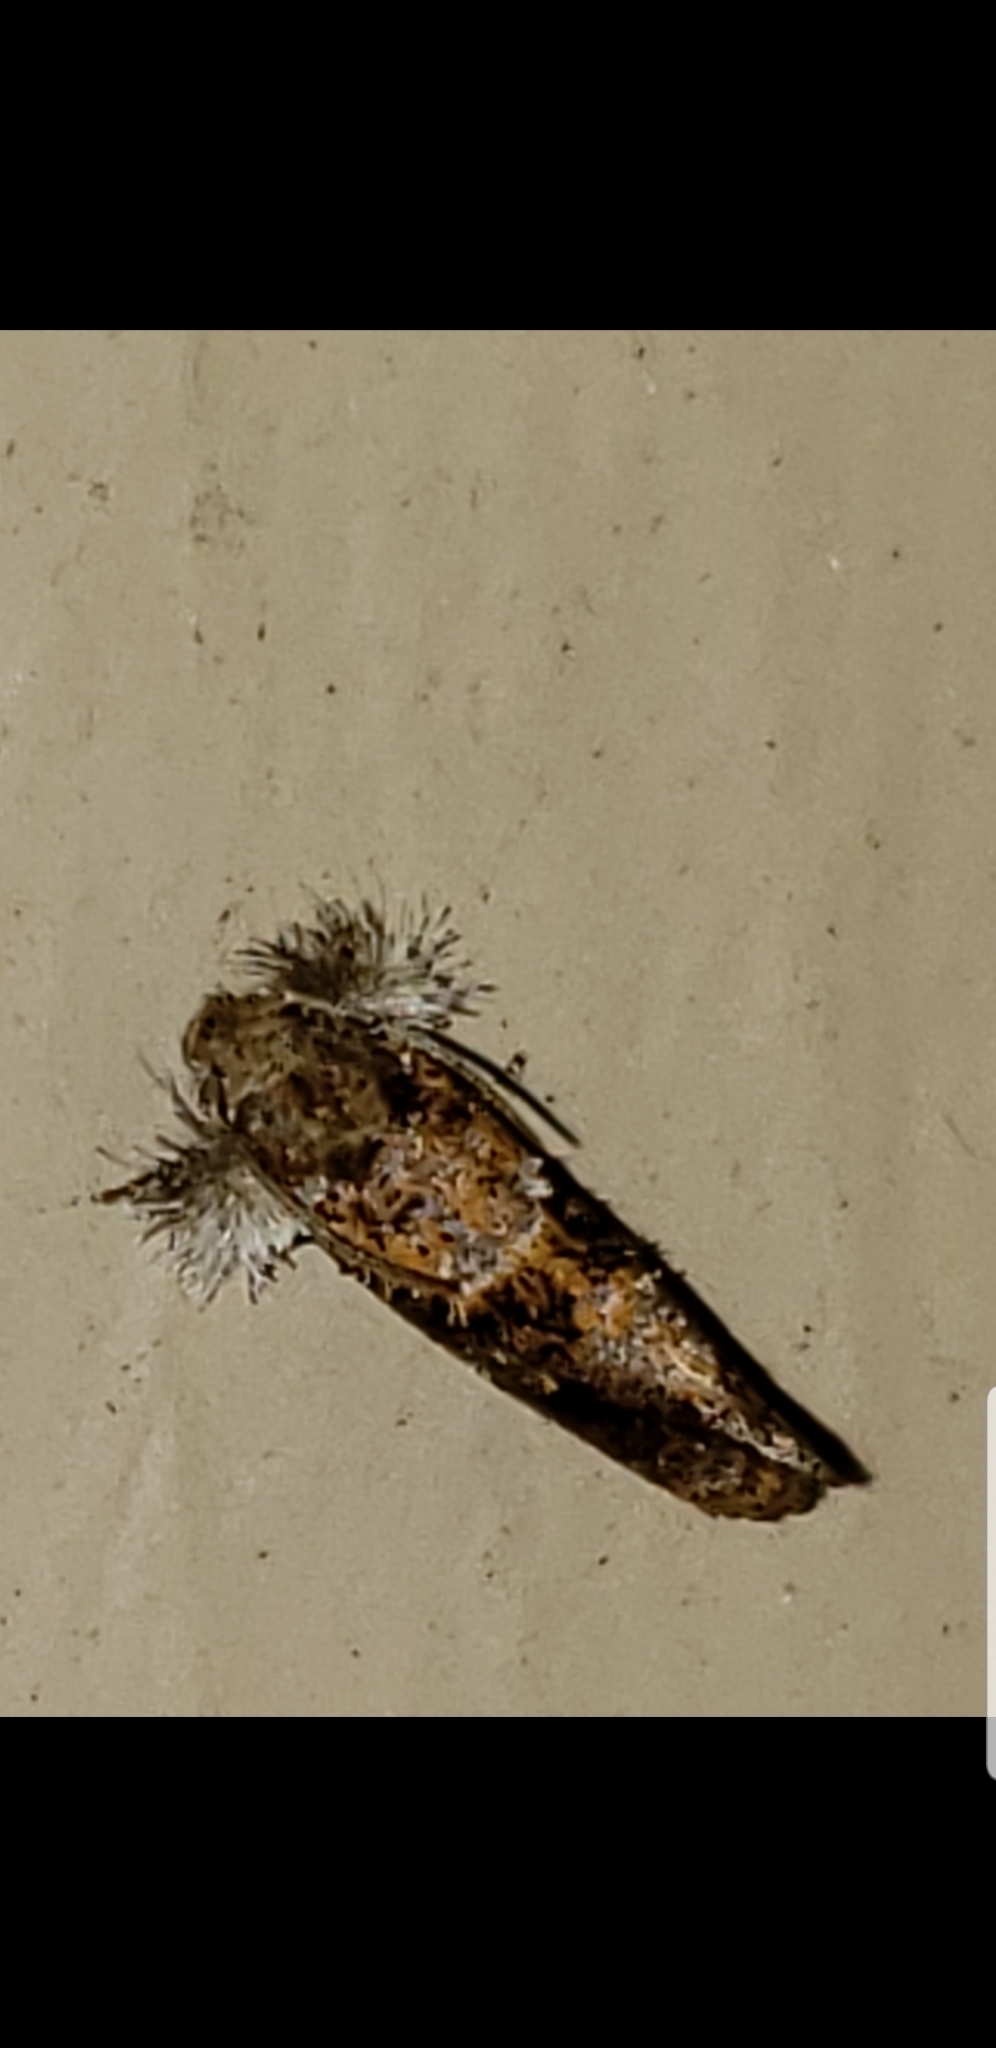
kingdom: Animalia
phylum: Arthropoda
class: Insecta
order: Lepidoptera
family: Tineidae
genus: Acrolophus
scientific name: Acrolophus panamae
